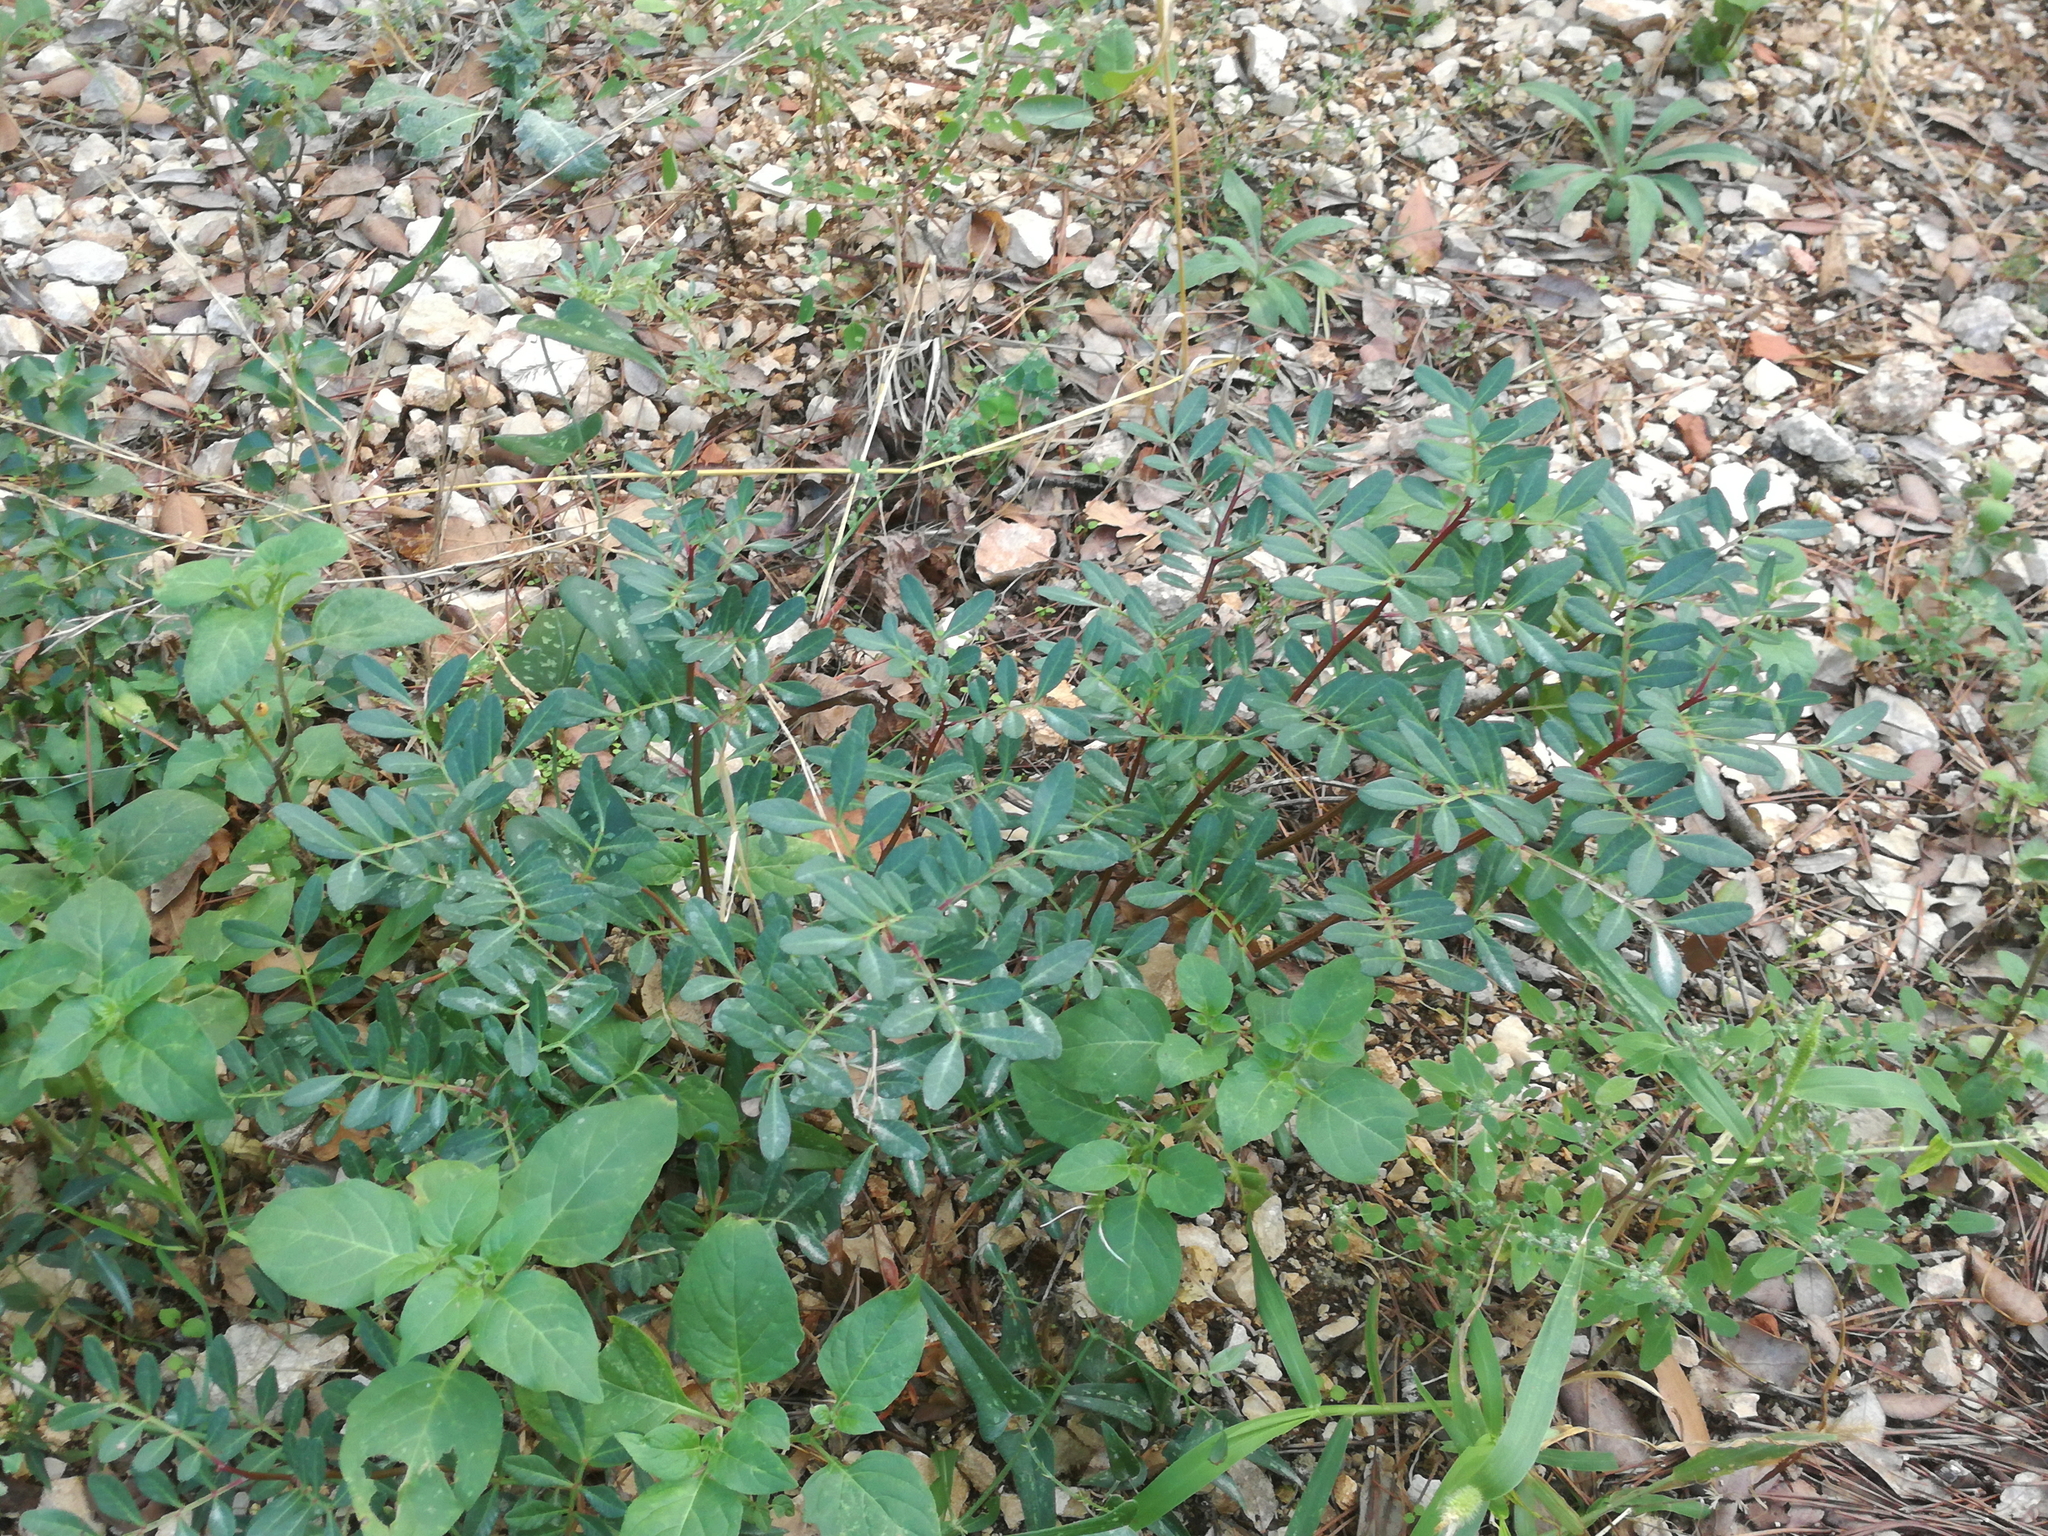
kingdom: Plantae
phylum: Tracheophyta
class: Magnoliopsida
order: Sapindales
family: Anacardiaceae
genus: Pistacia
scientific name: Pistacia lentiscus
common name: Lentisk
